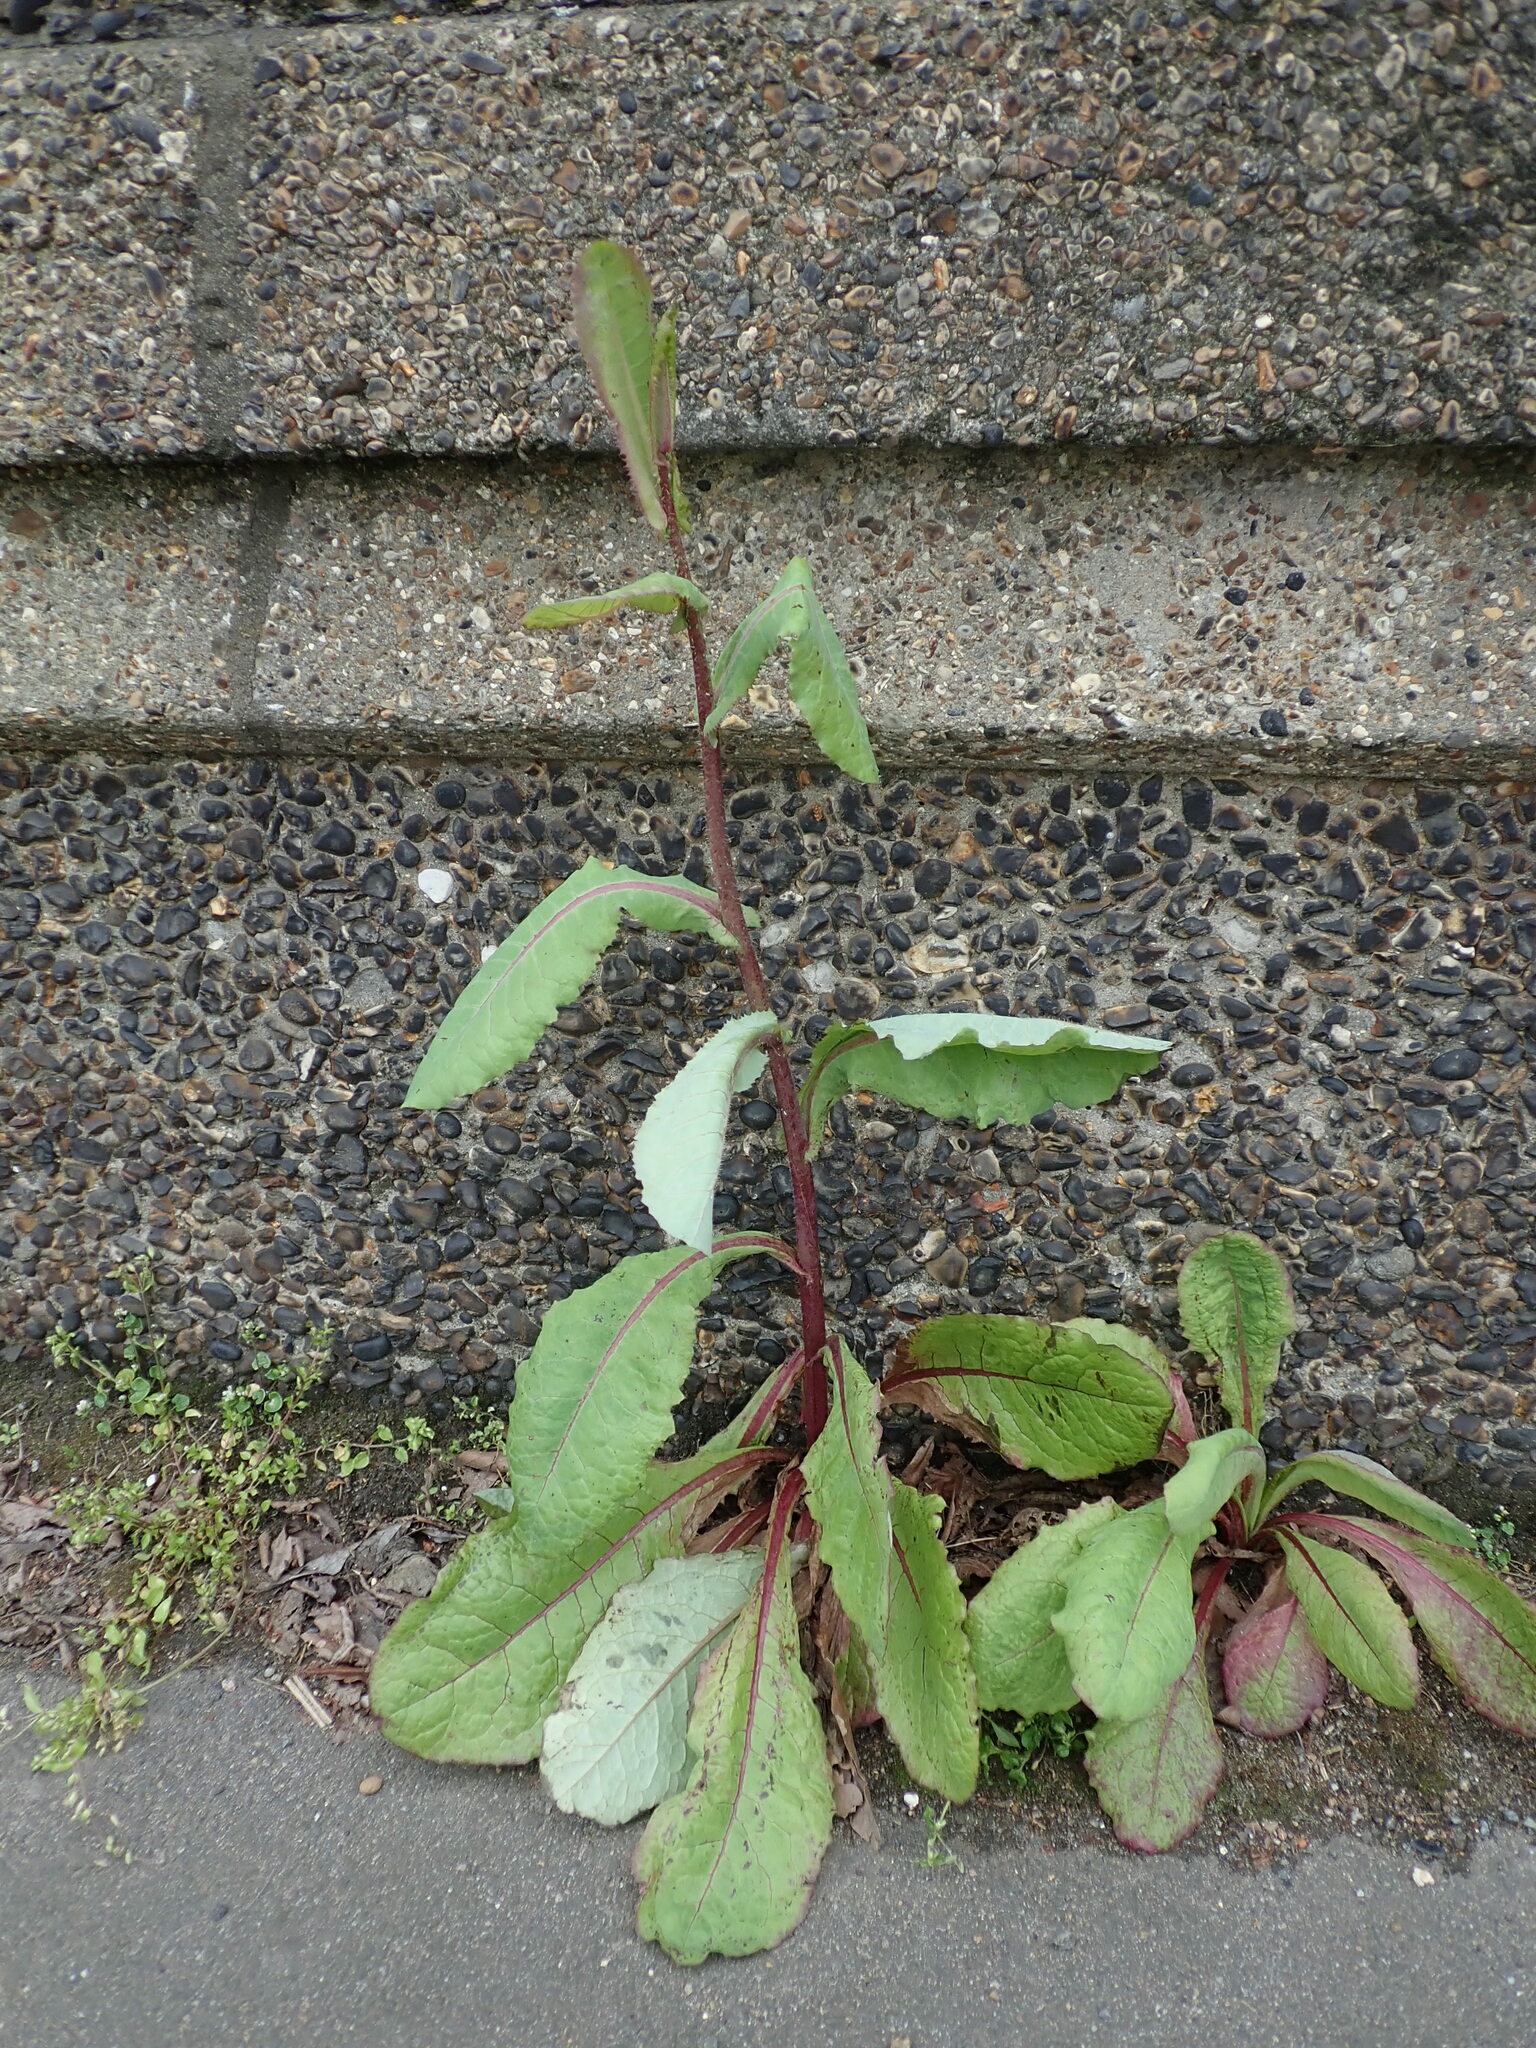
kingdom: Plantae
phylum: Tracheophyta
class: Magnoliopsida
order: Asterales
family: Asteraceae
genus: Lactuca
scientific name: Lactuca virosa
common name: Great lettuce
